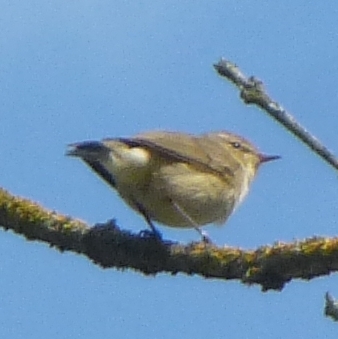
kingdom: Animalia
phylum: Chordata
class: Aves
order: Passeriformes
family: Phylloscopidae
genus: Phylloscopus
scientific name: Phylloscopus collybita
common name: Common chiffchaff
